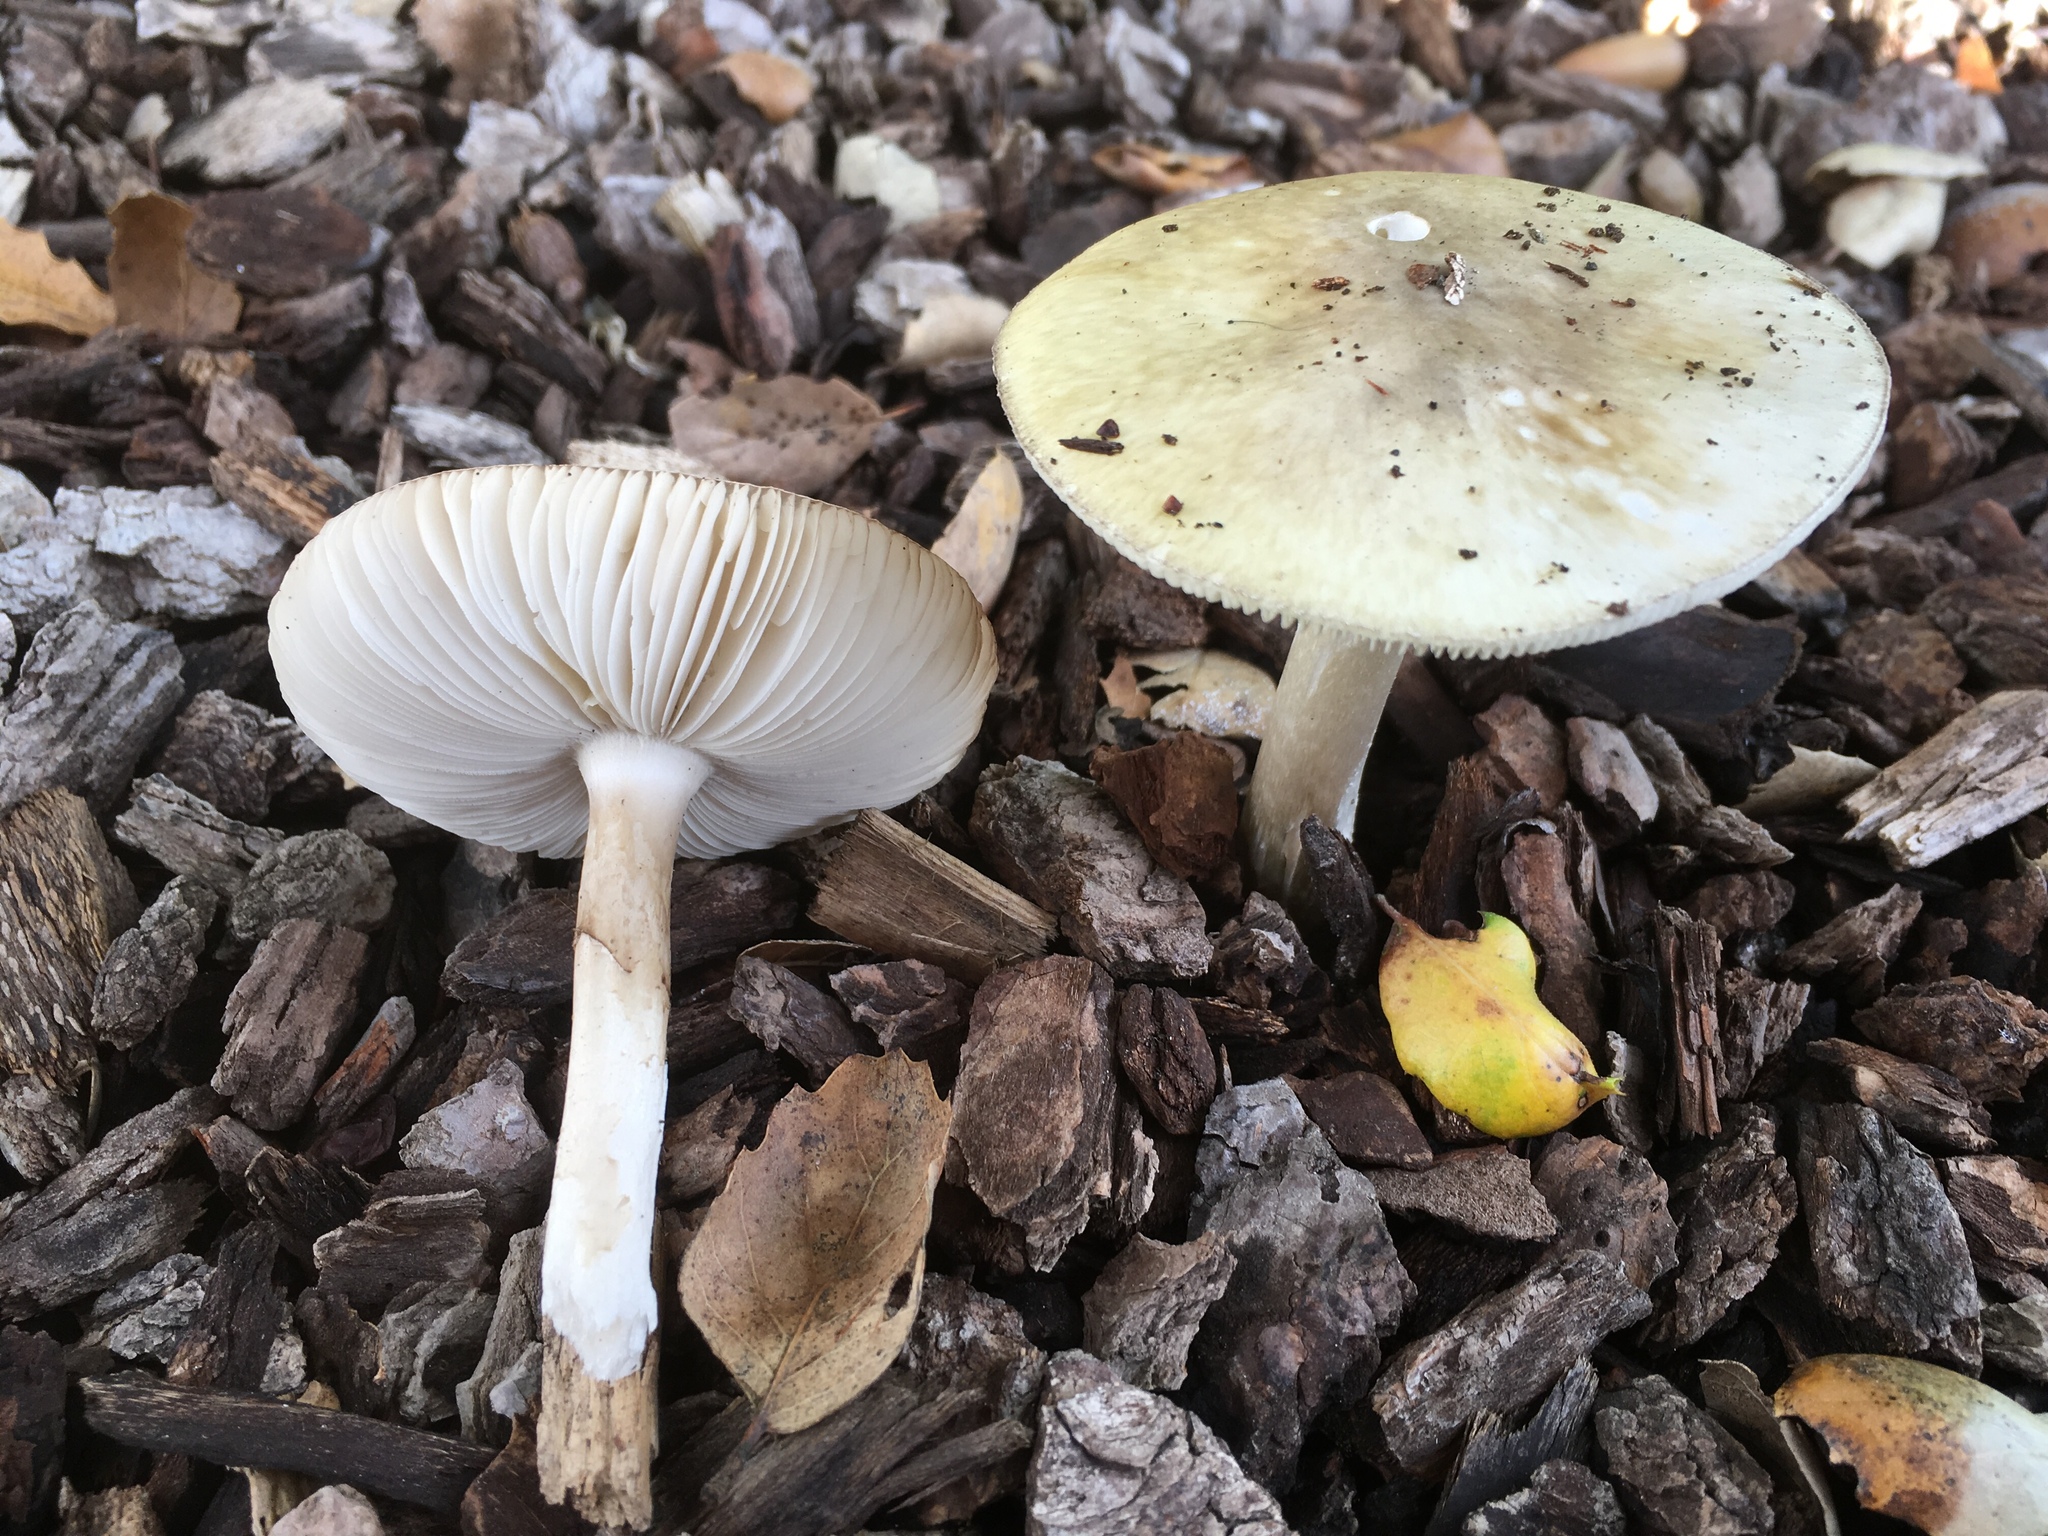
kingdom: Fungi
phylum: Basidiomycota
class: Agaricomycetes
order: Agaricales
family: Amanitaceae
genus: Amanita
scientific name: Amanita phalloides
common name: Death cap
